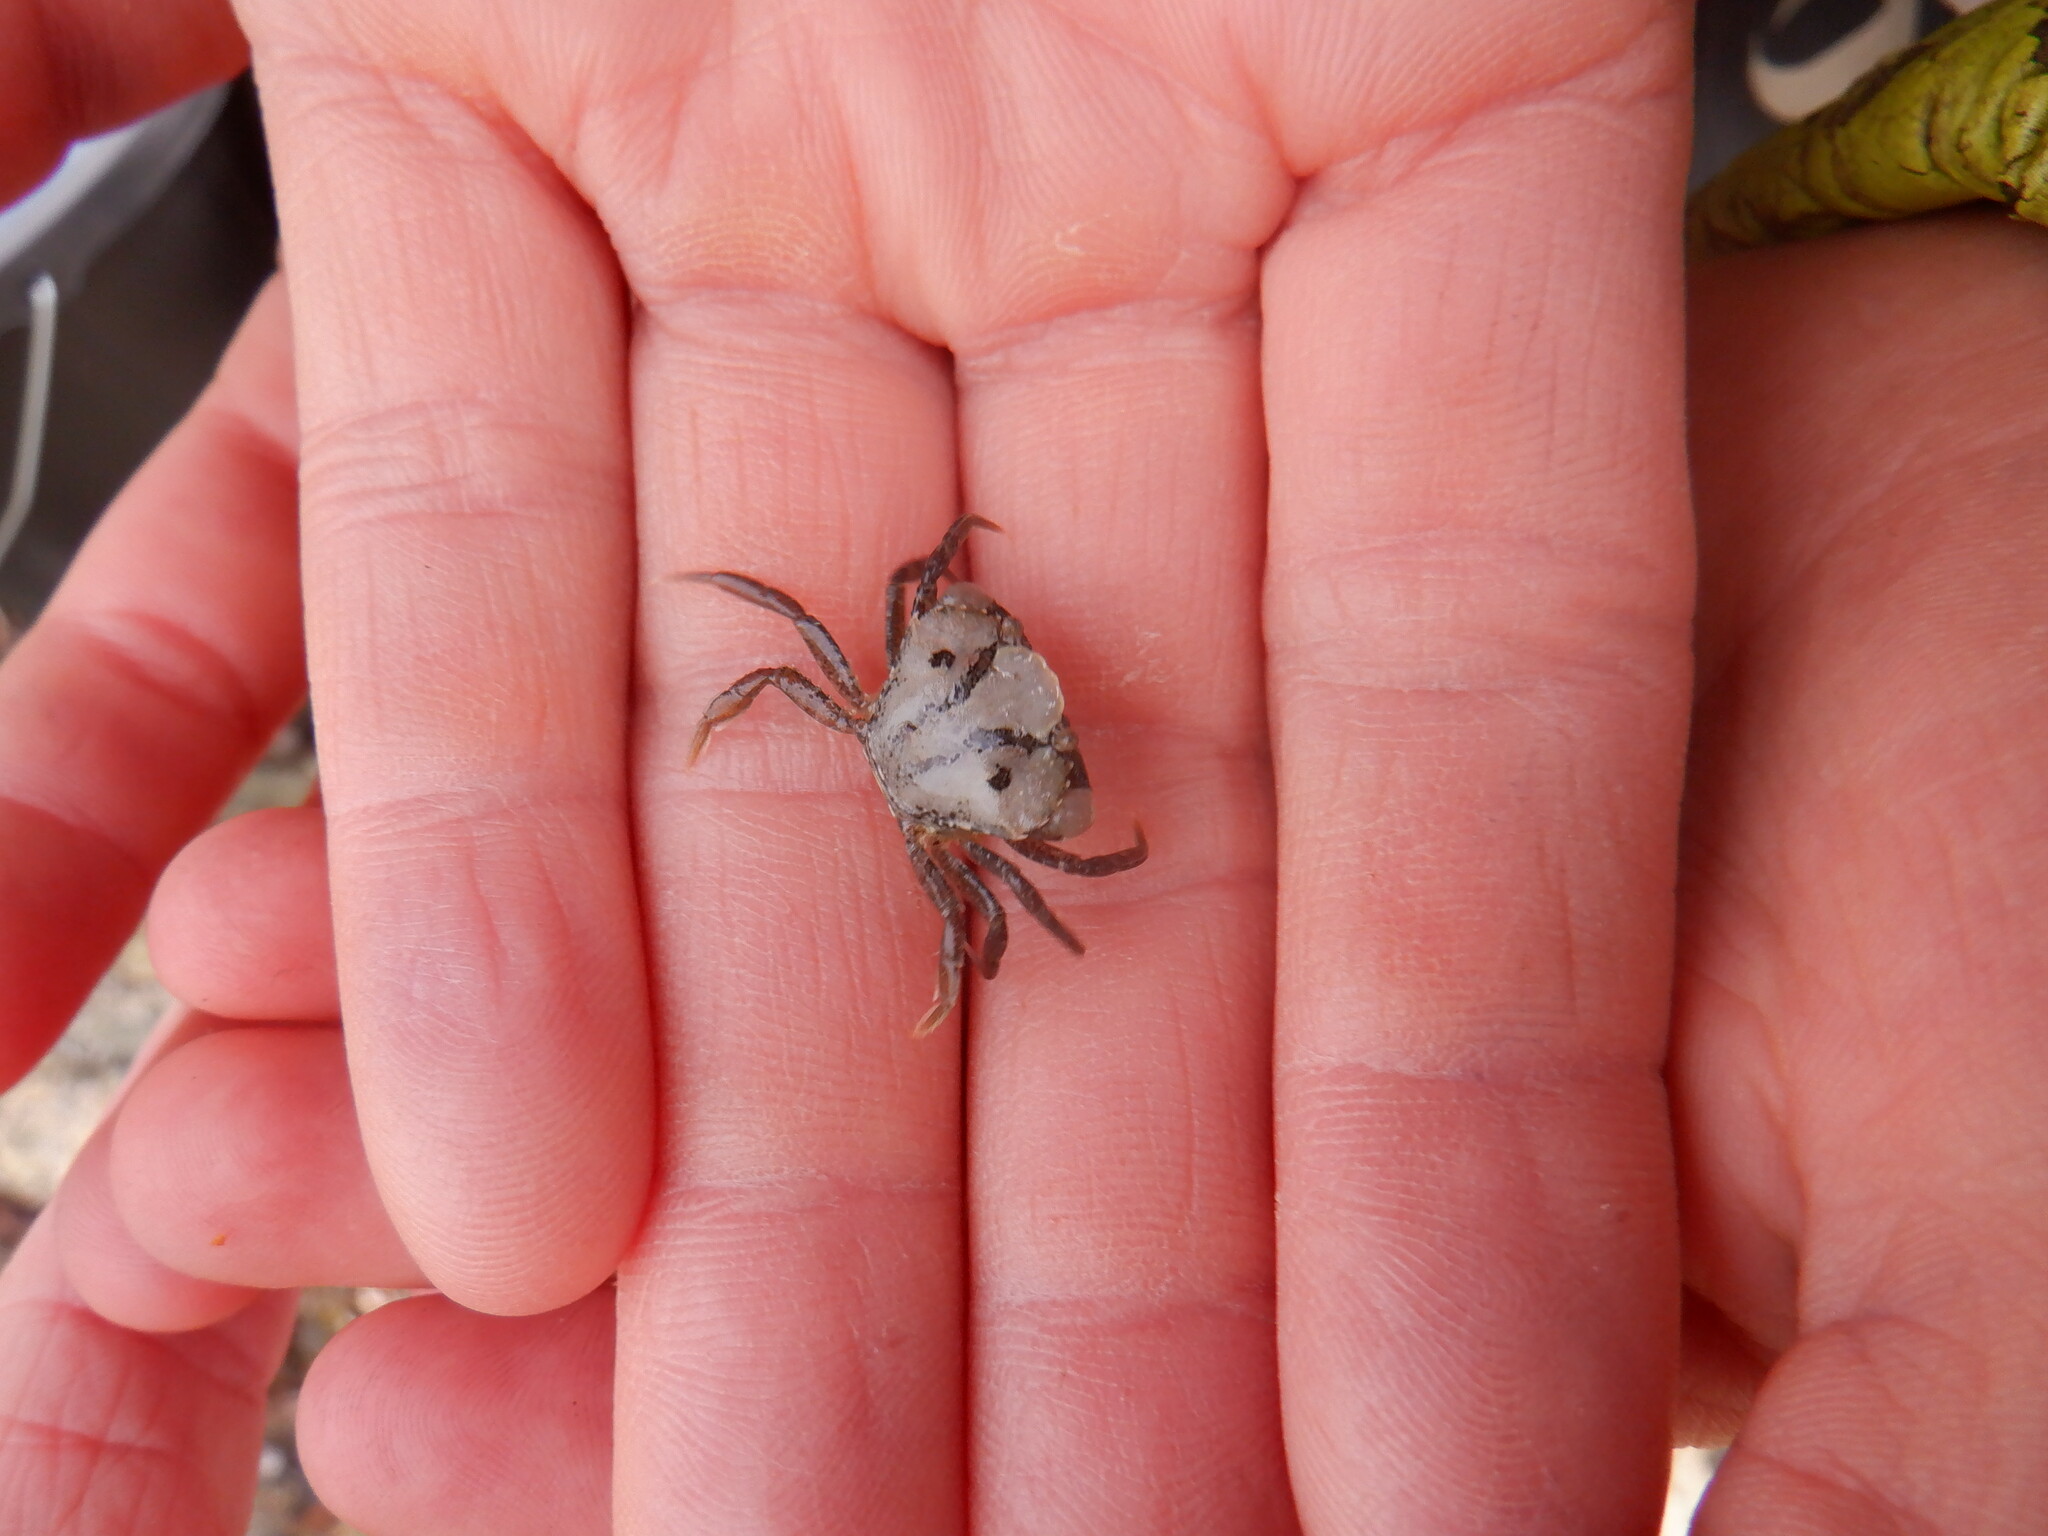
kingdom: Animalia
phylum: Arthropoda
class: Malacostraca
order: Decapoda
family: Carcinidae
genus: Carcinus
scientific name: Carcinus maenas
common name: European green crab
